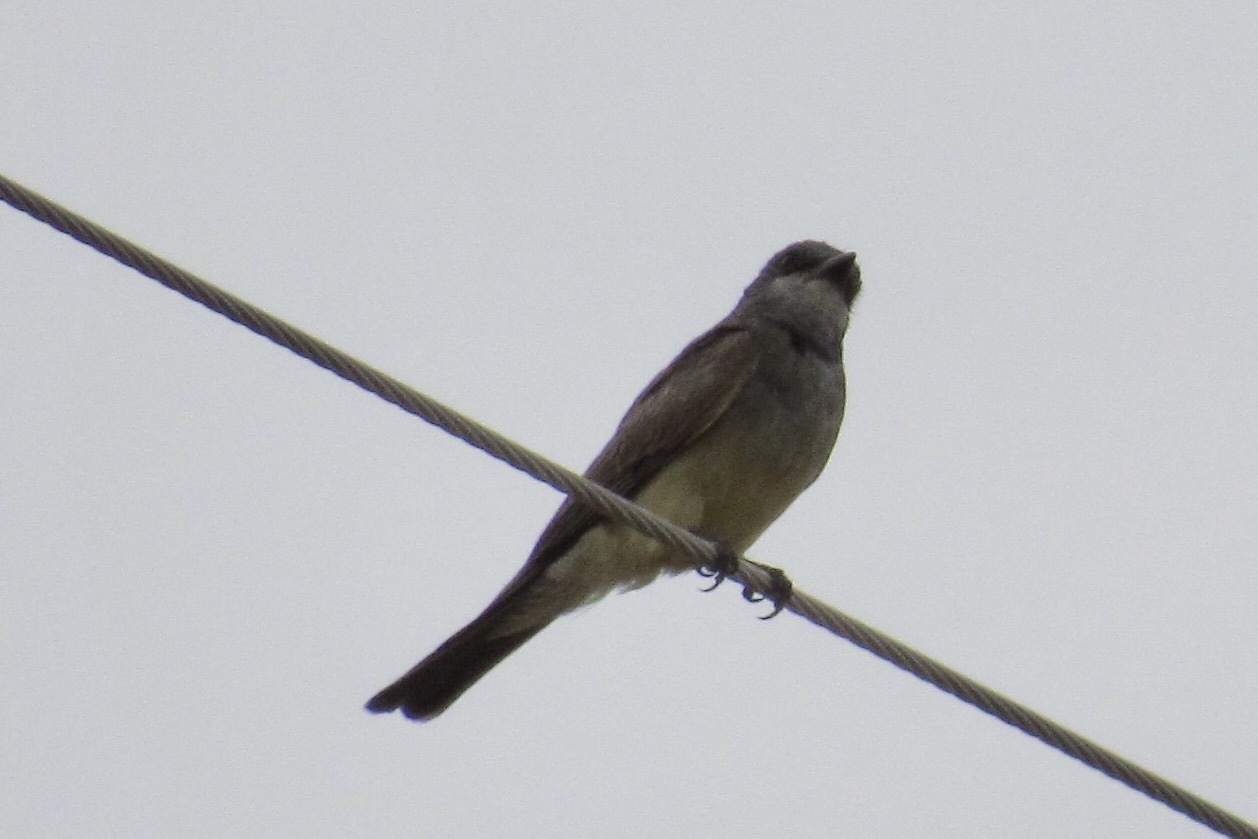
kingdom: Animalia
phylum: Chordata
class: Aves
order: Passeriformes
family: Tyrannidae
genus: Tyrannus
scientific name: Tyrannus vociferans
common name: Cassin's kingbird
